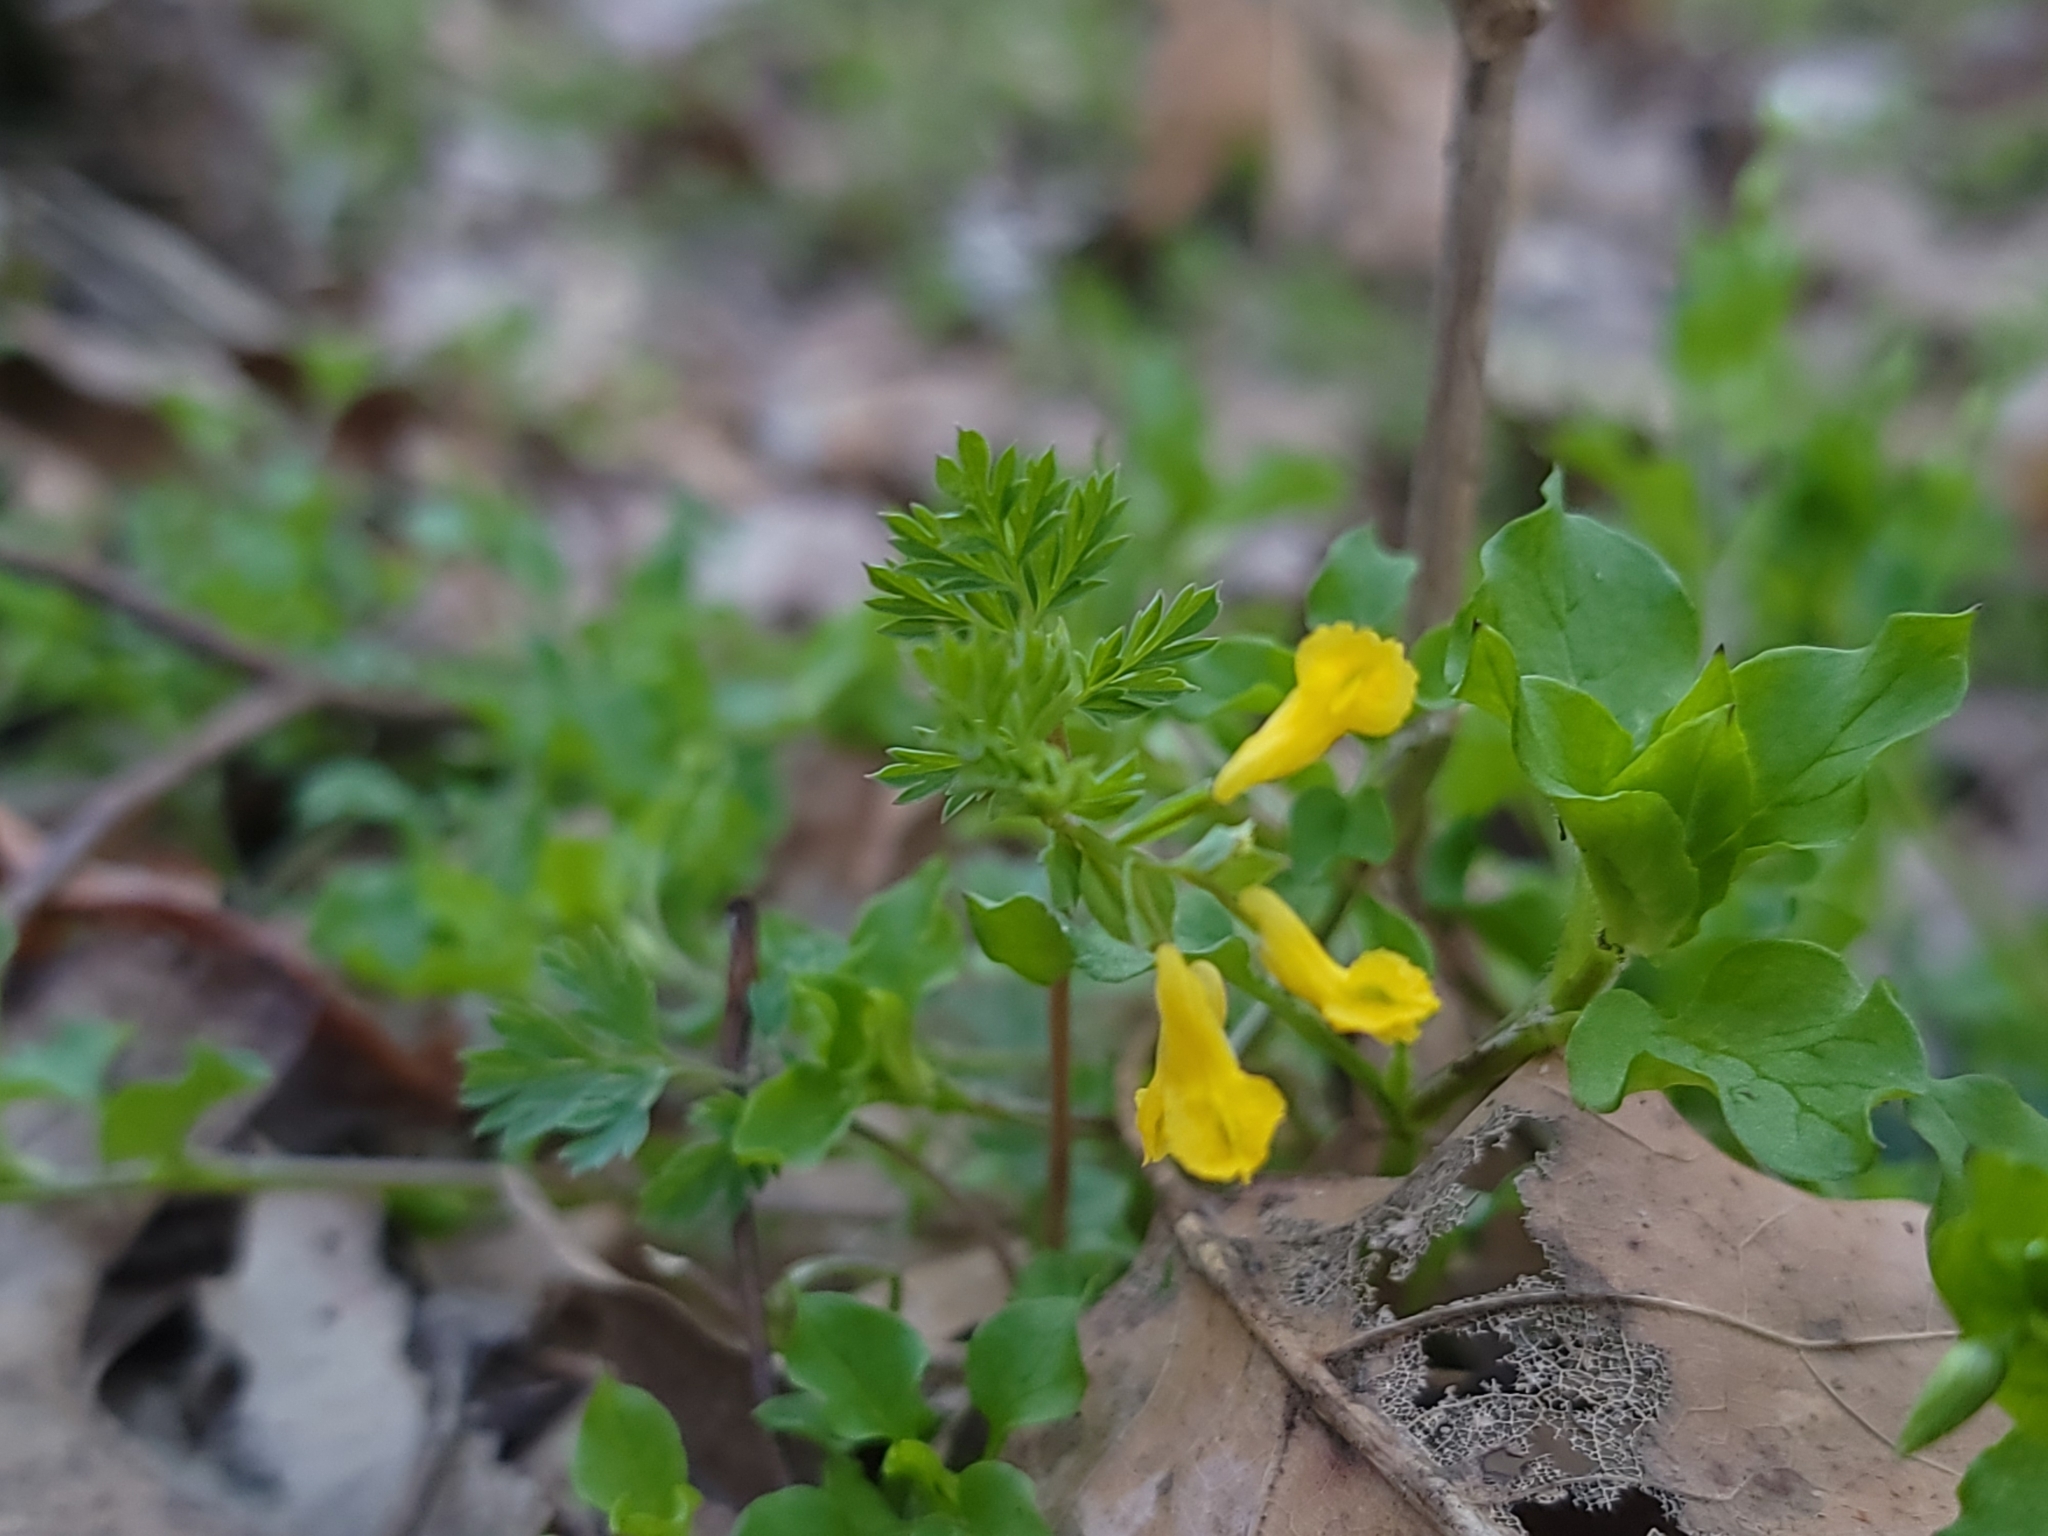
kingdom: Plantae
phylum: Tracheophyta
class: Magnoliopsida
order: Ranunculales
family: Papaveraceae
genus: Corydalis
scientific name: Corydalis flavula
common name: Yellow corydalis
